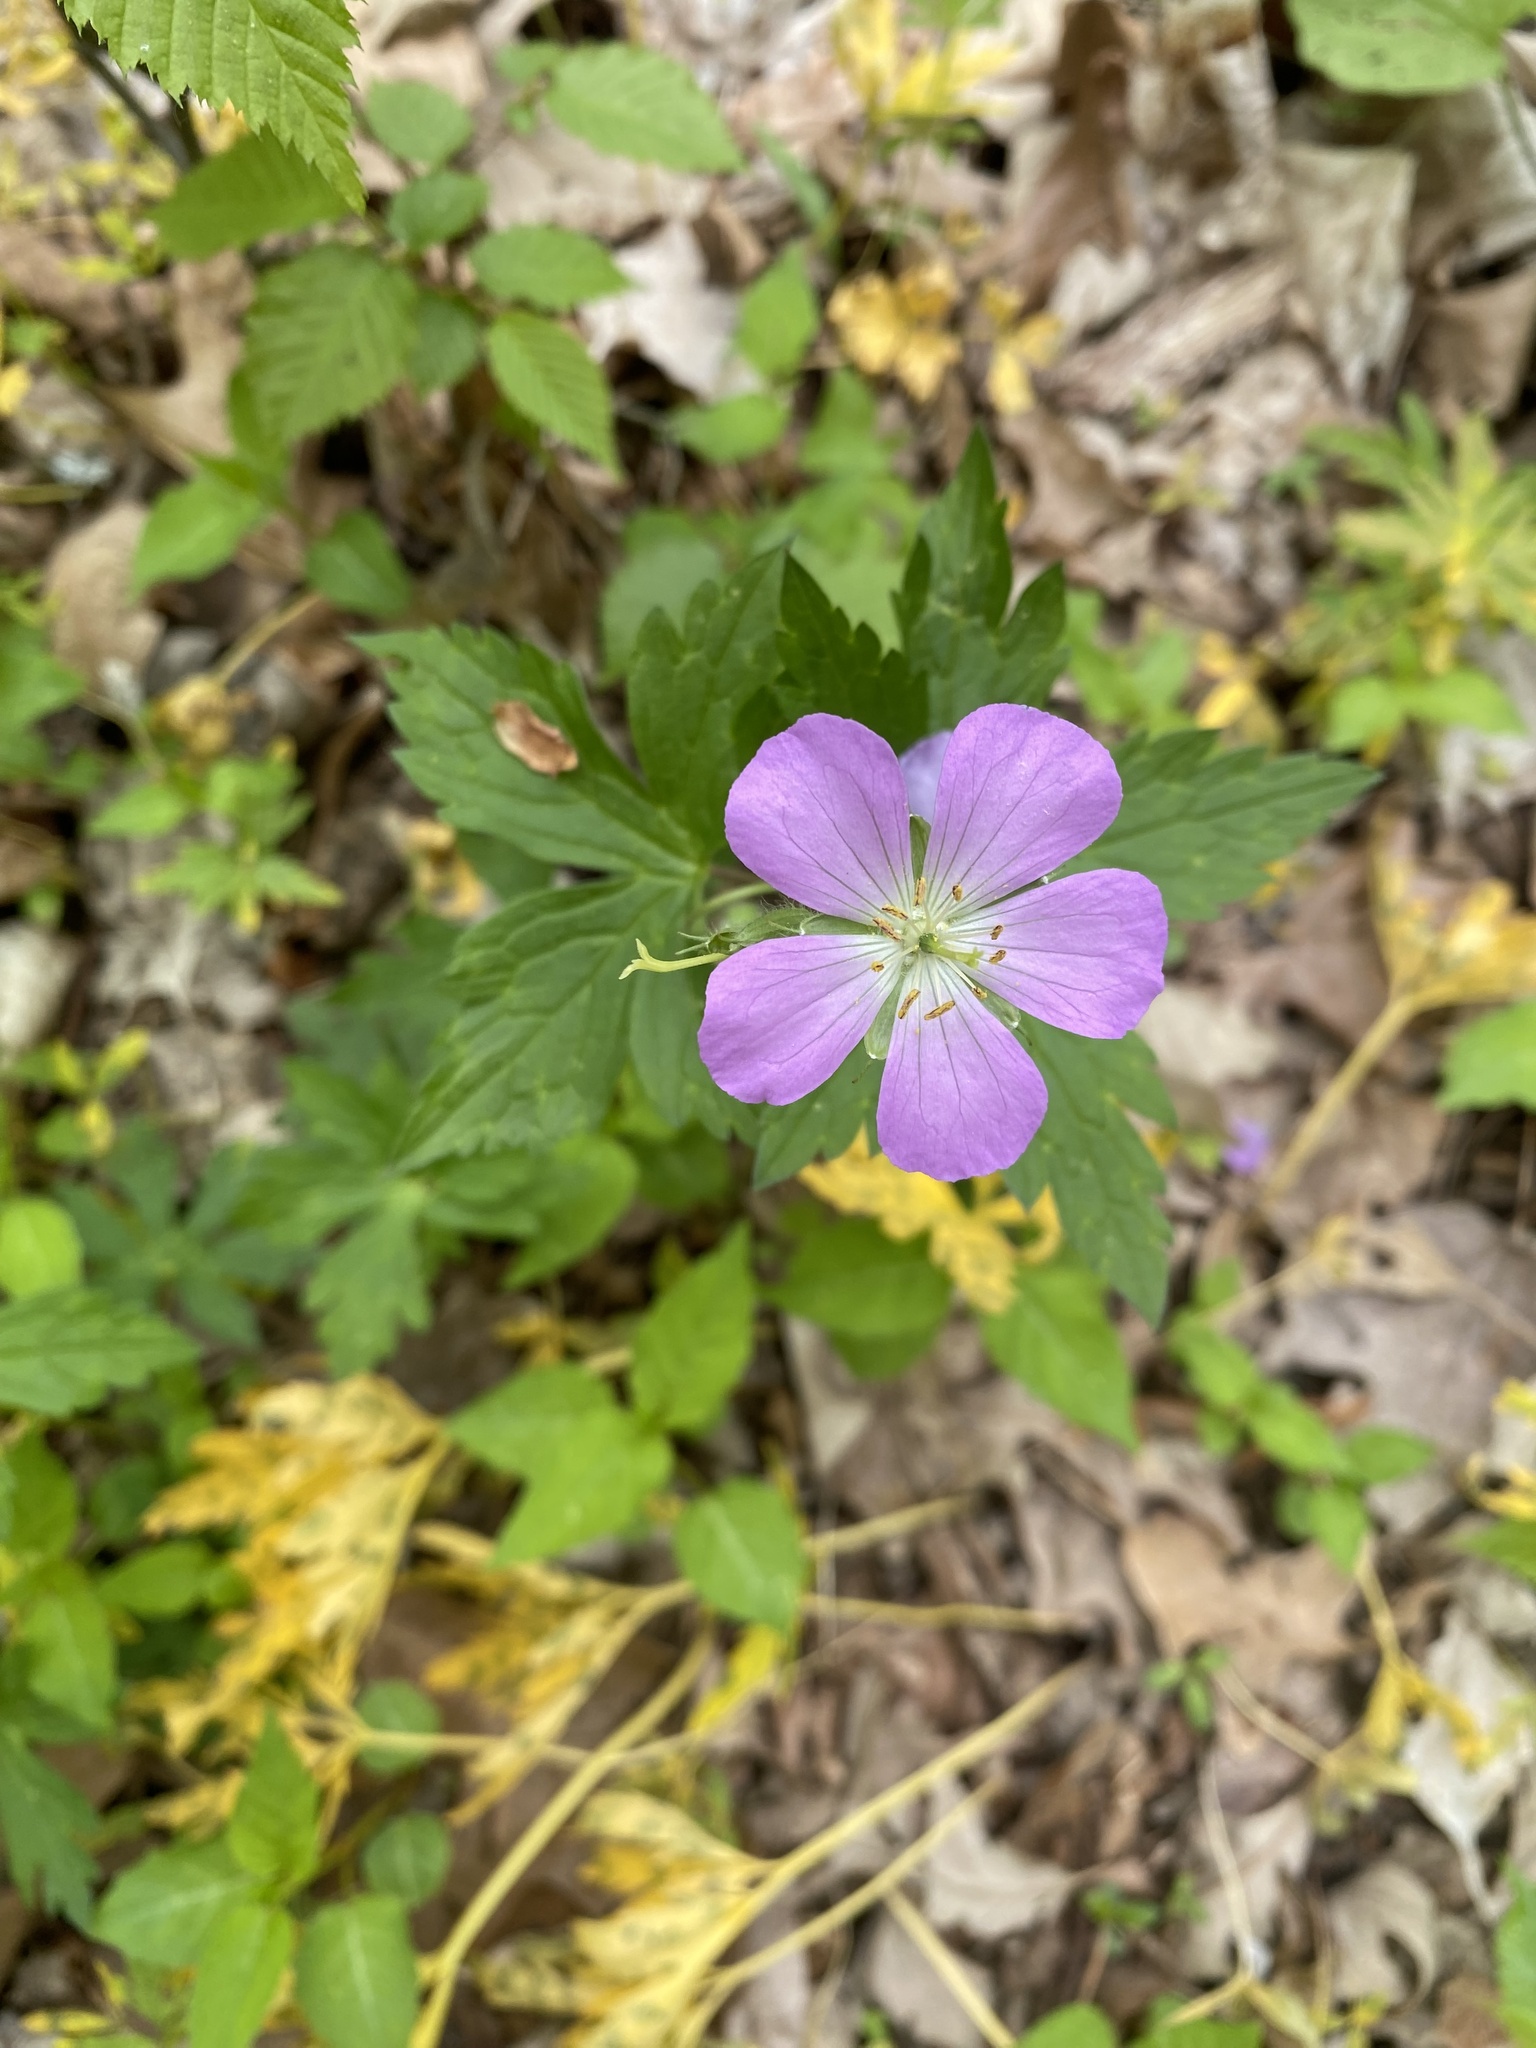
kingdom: Plantae
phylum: Tracheophyta
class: Magnoliopsida
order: Geraniales
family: Geraniaceae
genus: Geranium
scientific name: Geranium maculatum
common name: Spotted geranium
